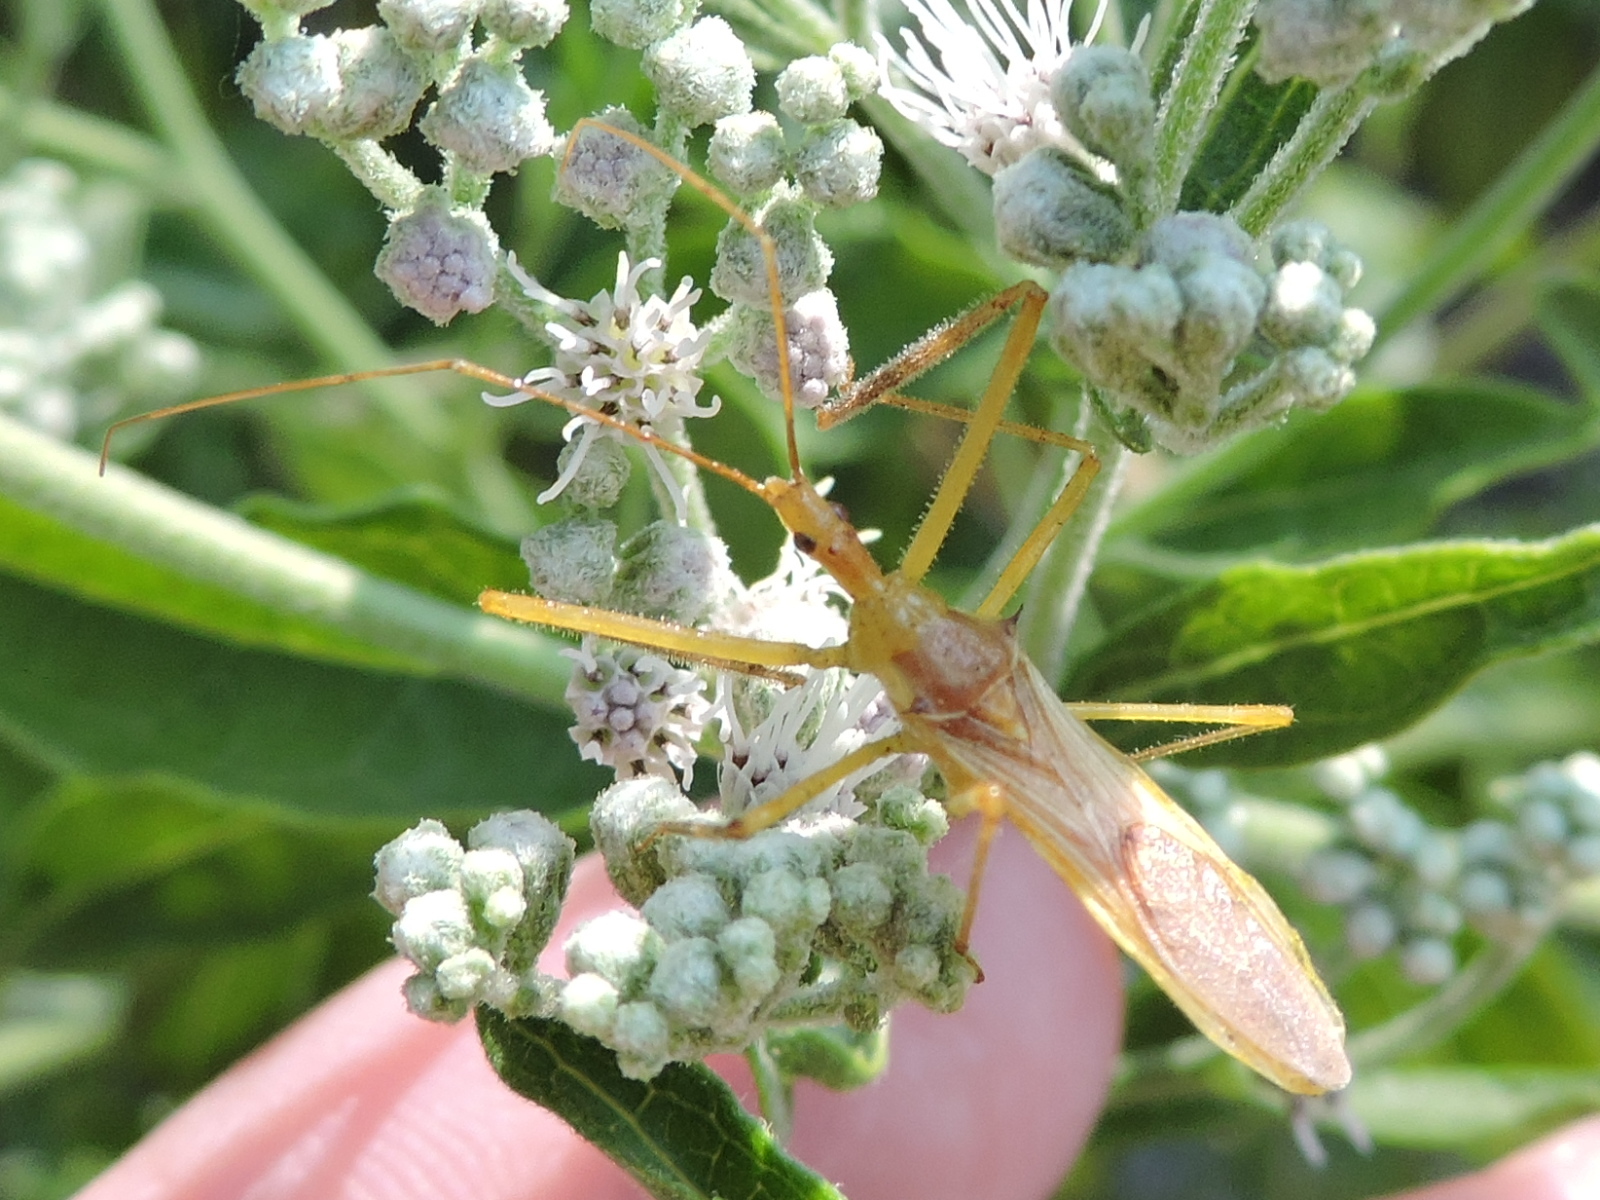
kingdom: Animalia
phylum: Arthropoda
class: Insecta
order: Hemiptera
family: Reduviidae
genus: Zelus
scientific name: Zelus luridus
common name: Pale green assassin bug
